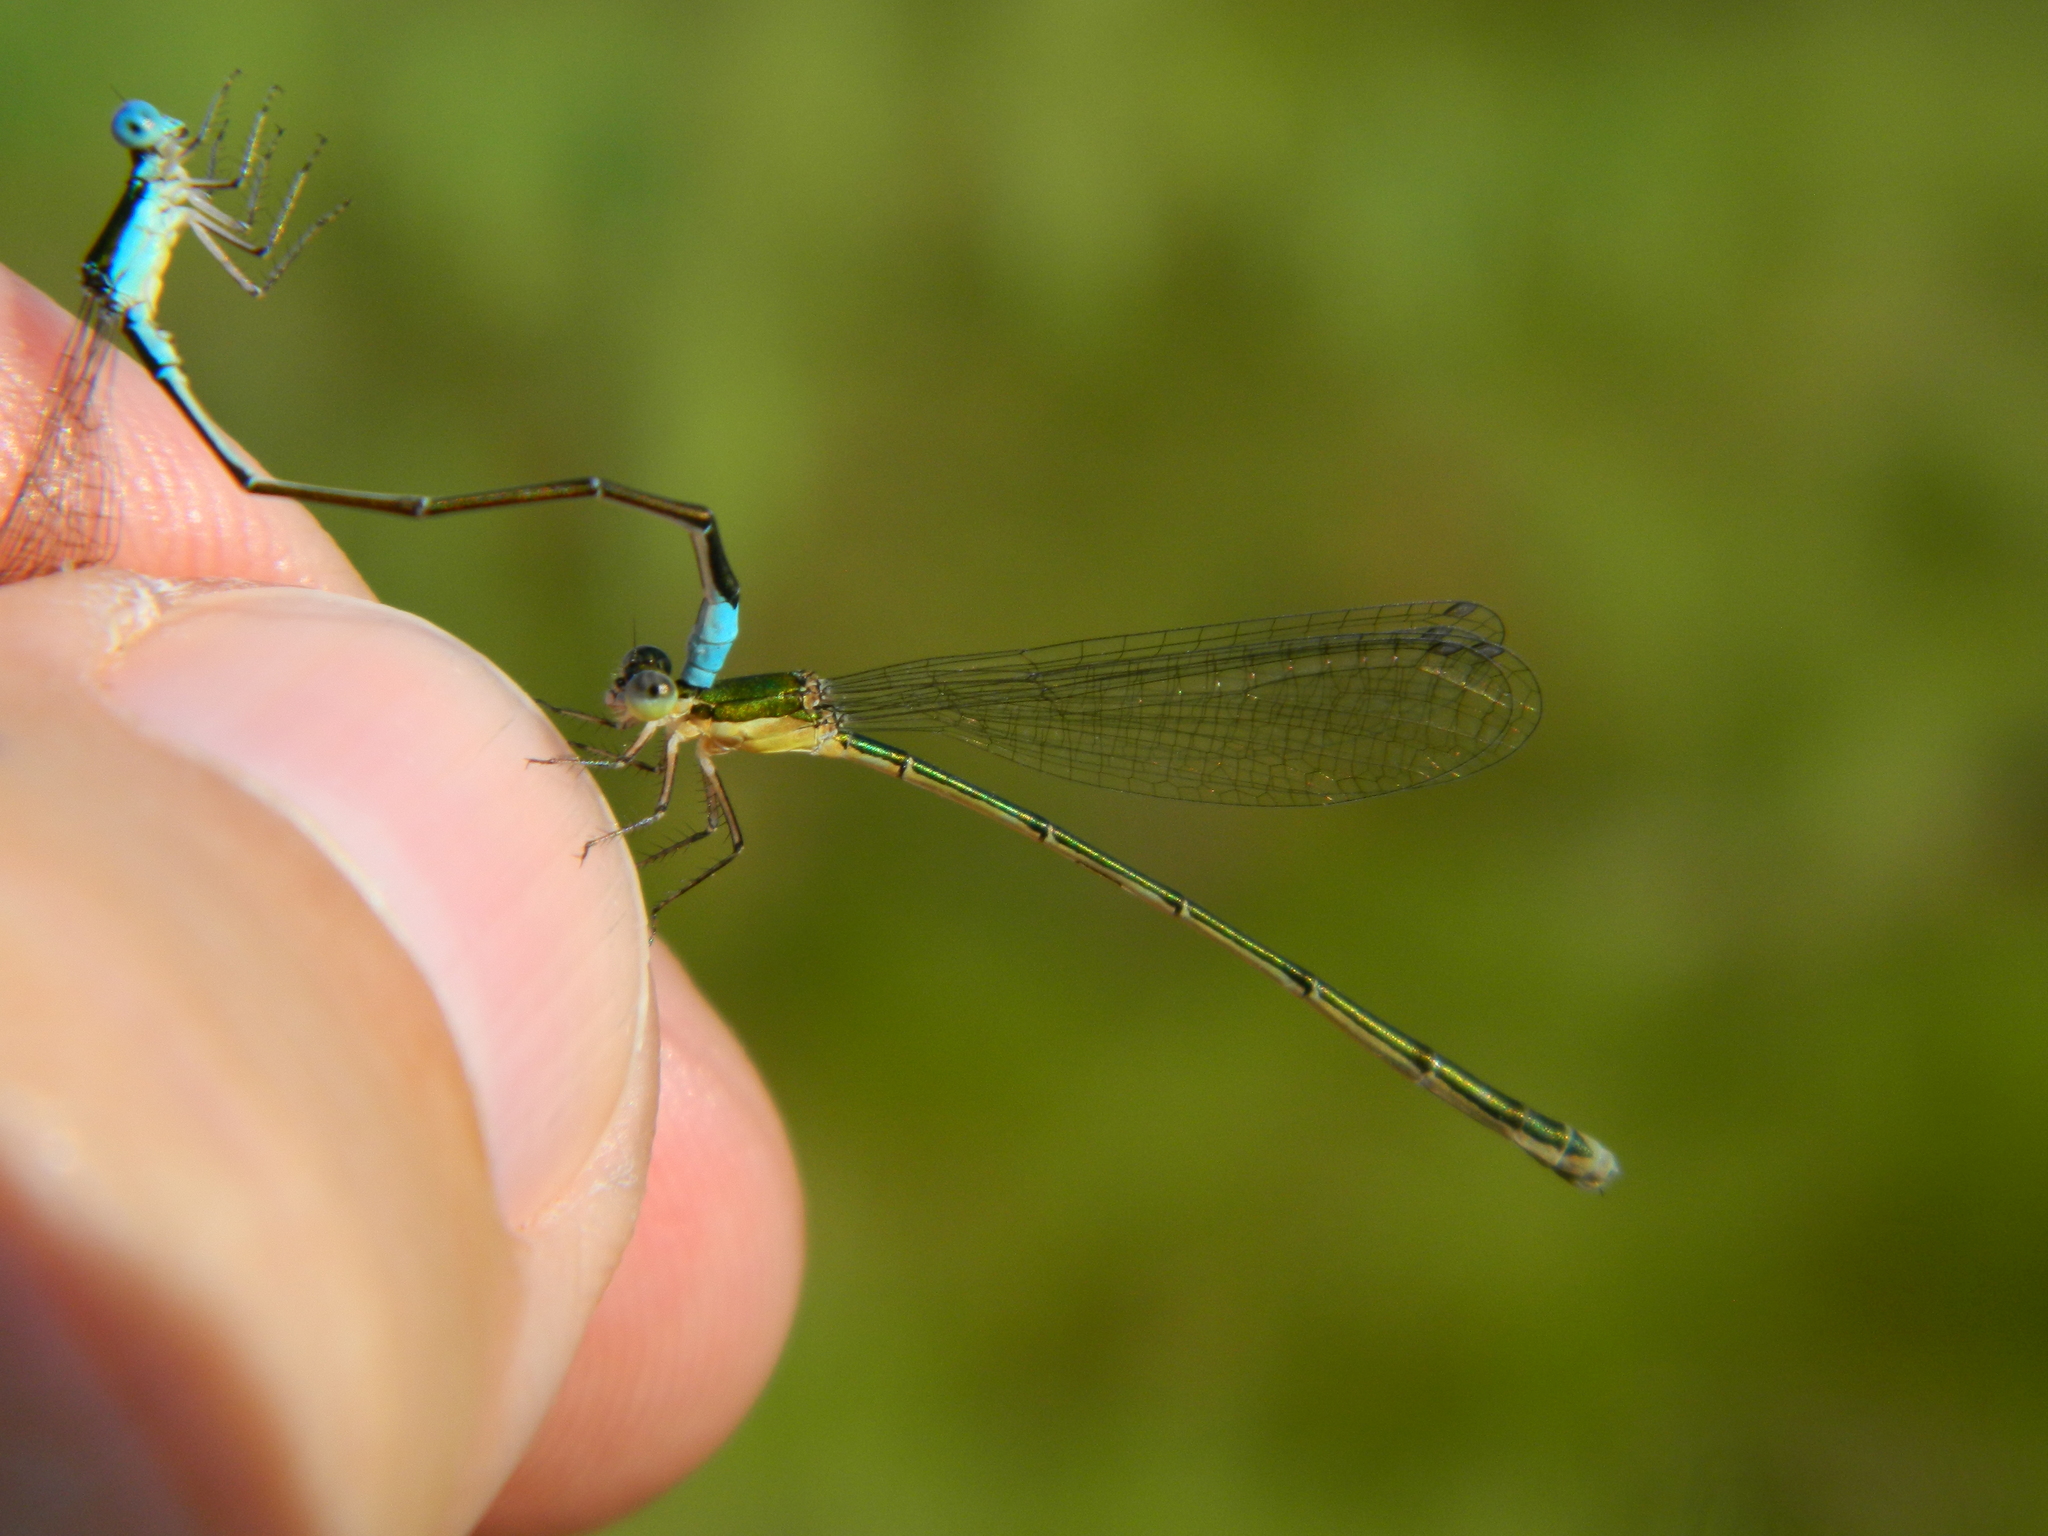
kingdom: Animalia
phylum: Arthropoda
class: Insecta
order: Odonata
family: Coenagrionidae
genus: Nehalennia
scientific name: Nehalennia gracilis
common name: Sphagnum sprite
